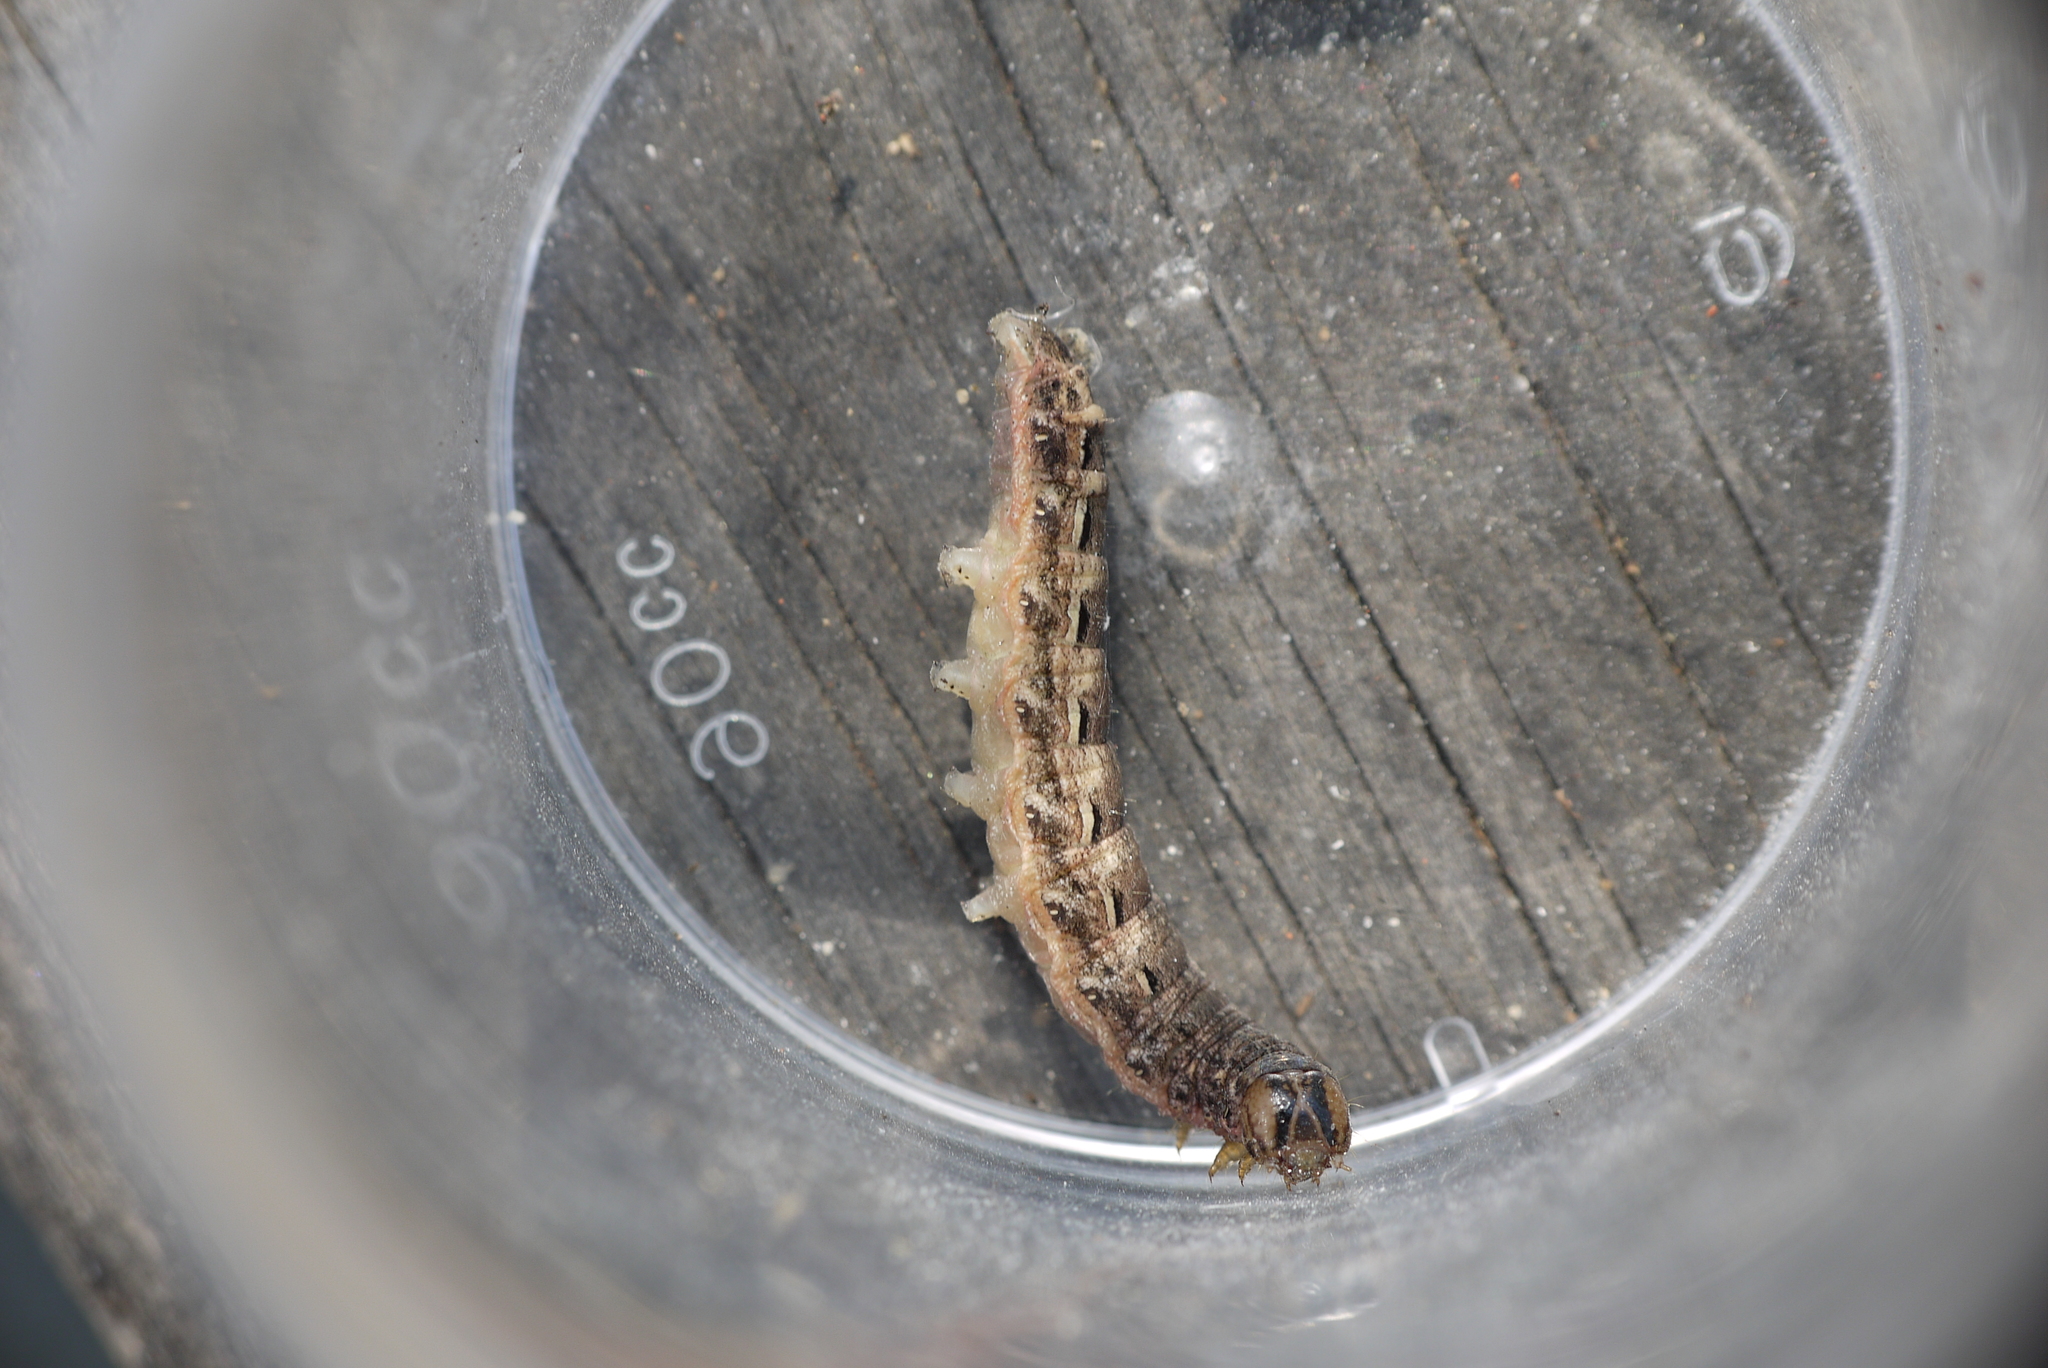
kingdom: Animalia
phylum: Arthropoda
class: Insecta
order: Lepidoptera
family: Noctuidae
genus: Noctua
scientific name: Noctua pronuba
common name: Large yellow underwing
